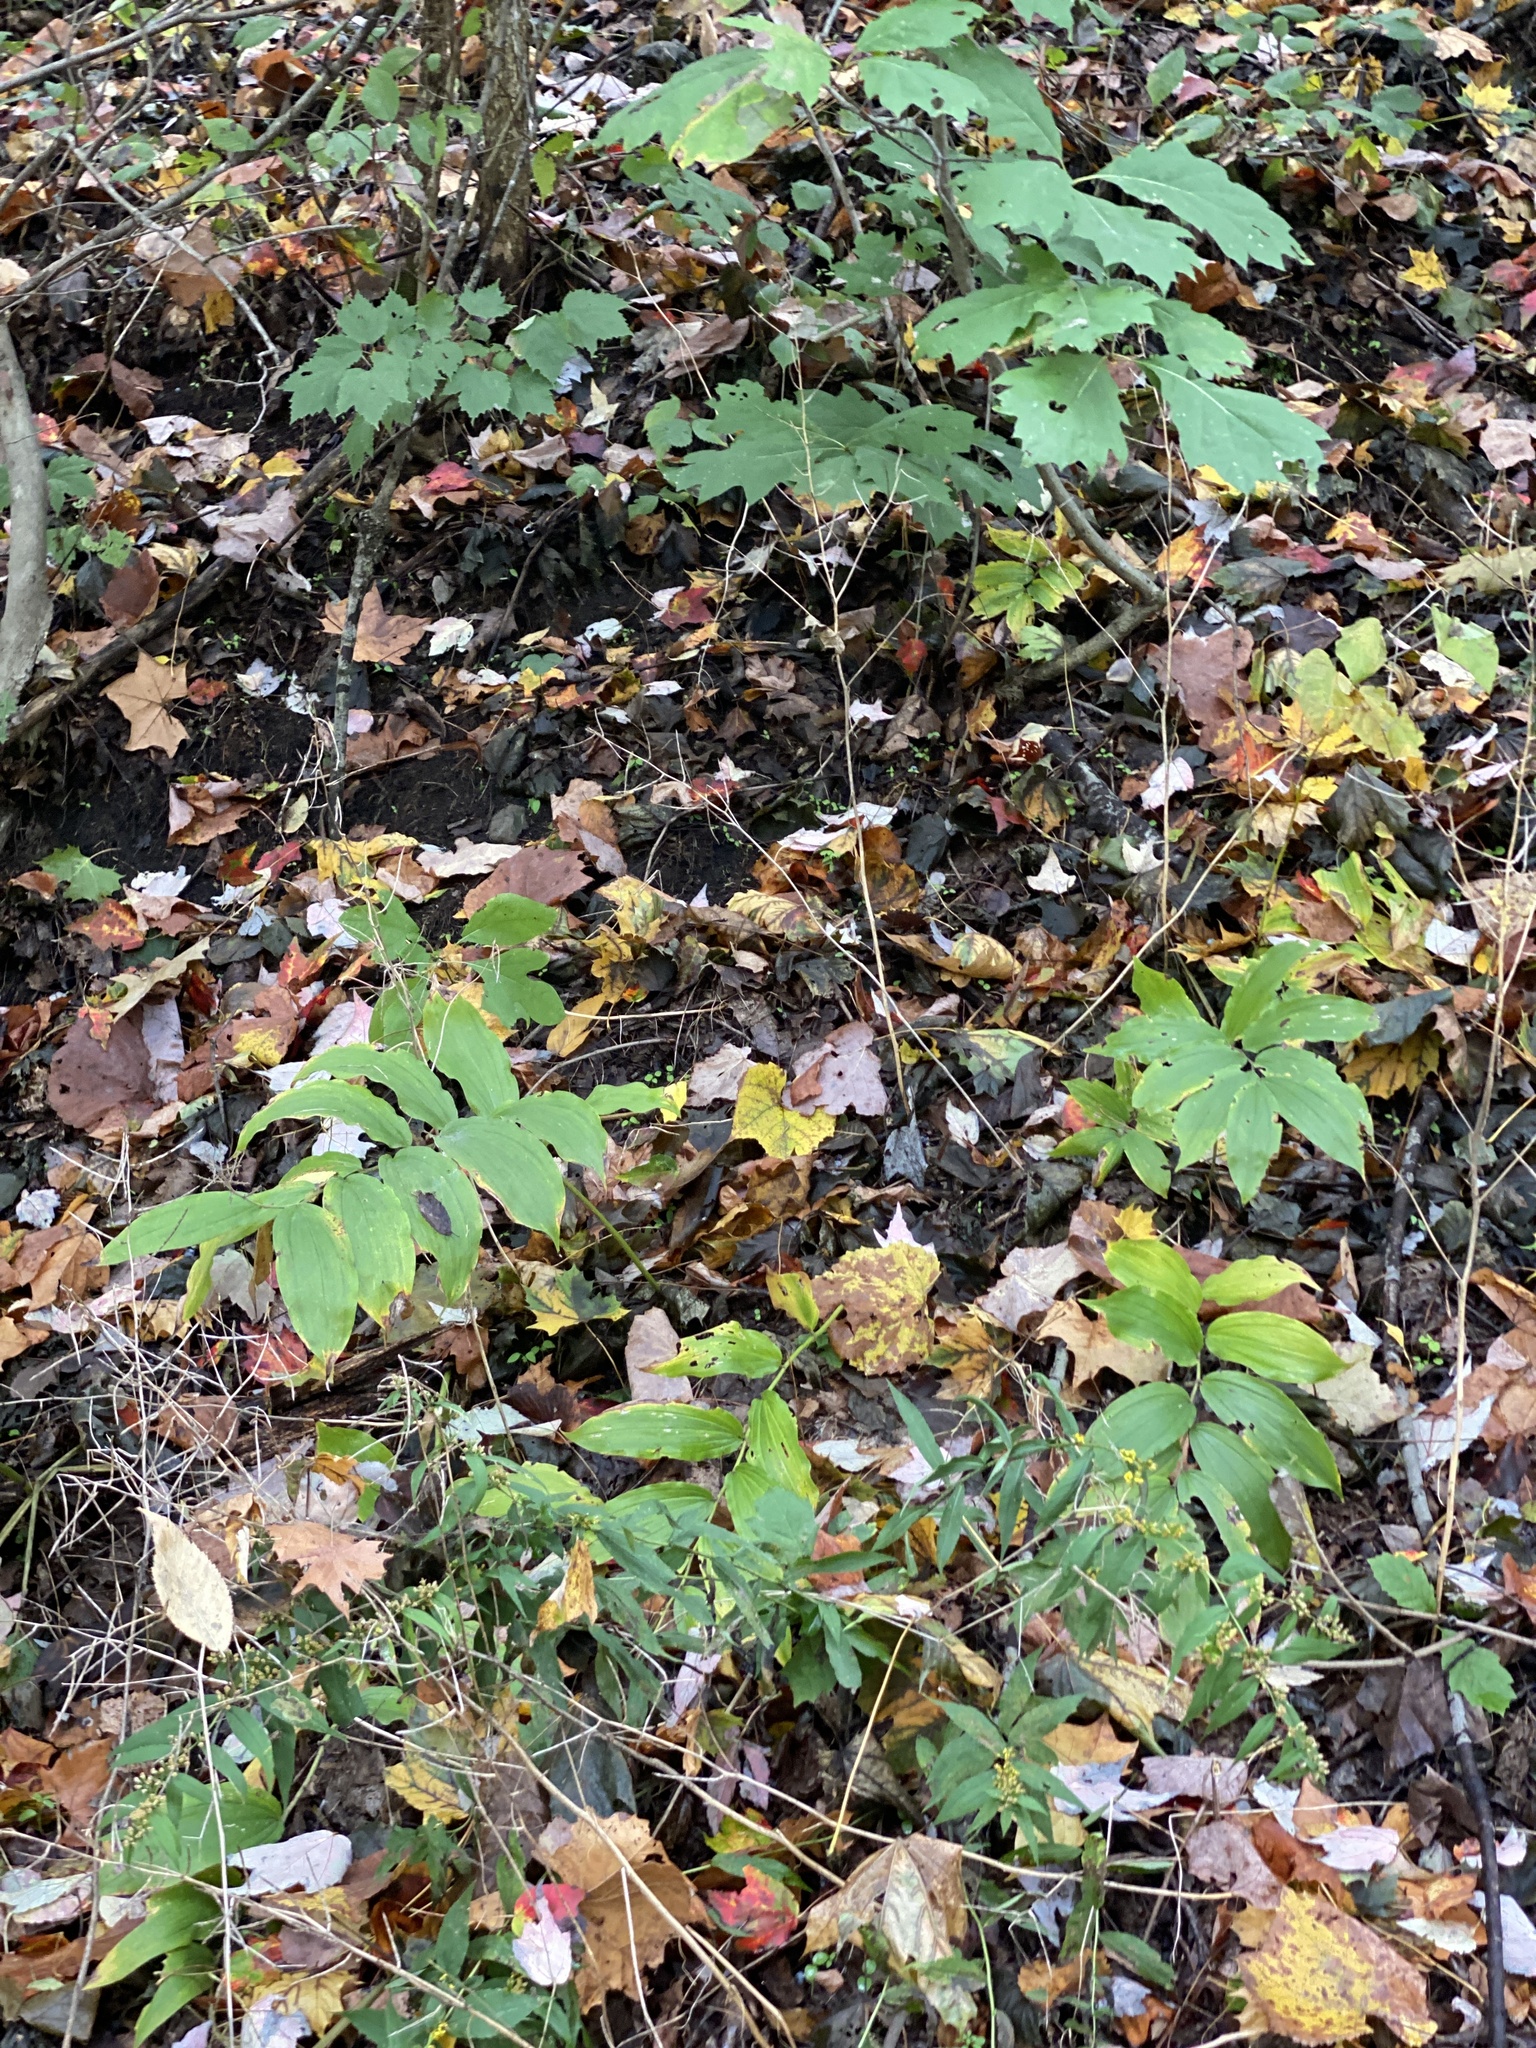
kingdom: Plantae
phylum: Tracheophyta
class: Liliopsida
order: Asparagales
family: Asparagaceae
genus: Maianthemum
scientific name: Maianthemum racemosum
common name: False spikenard
